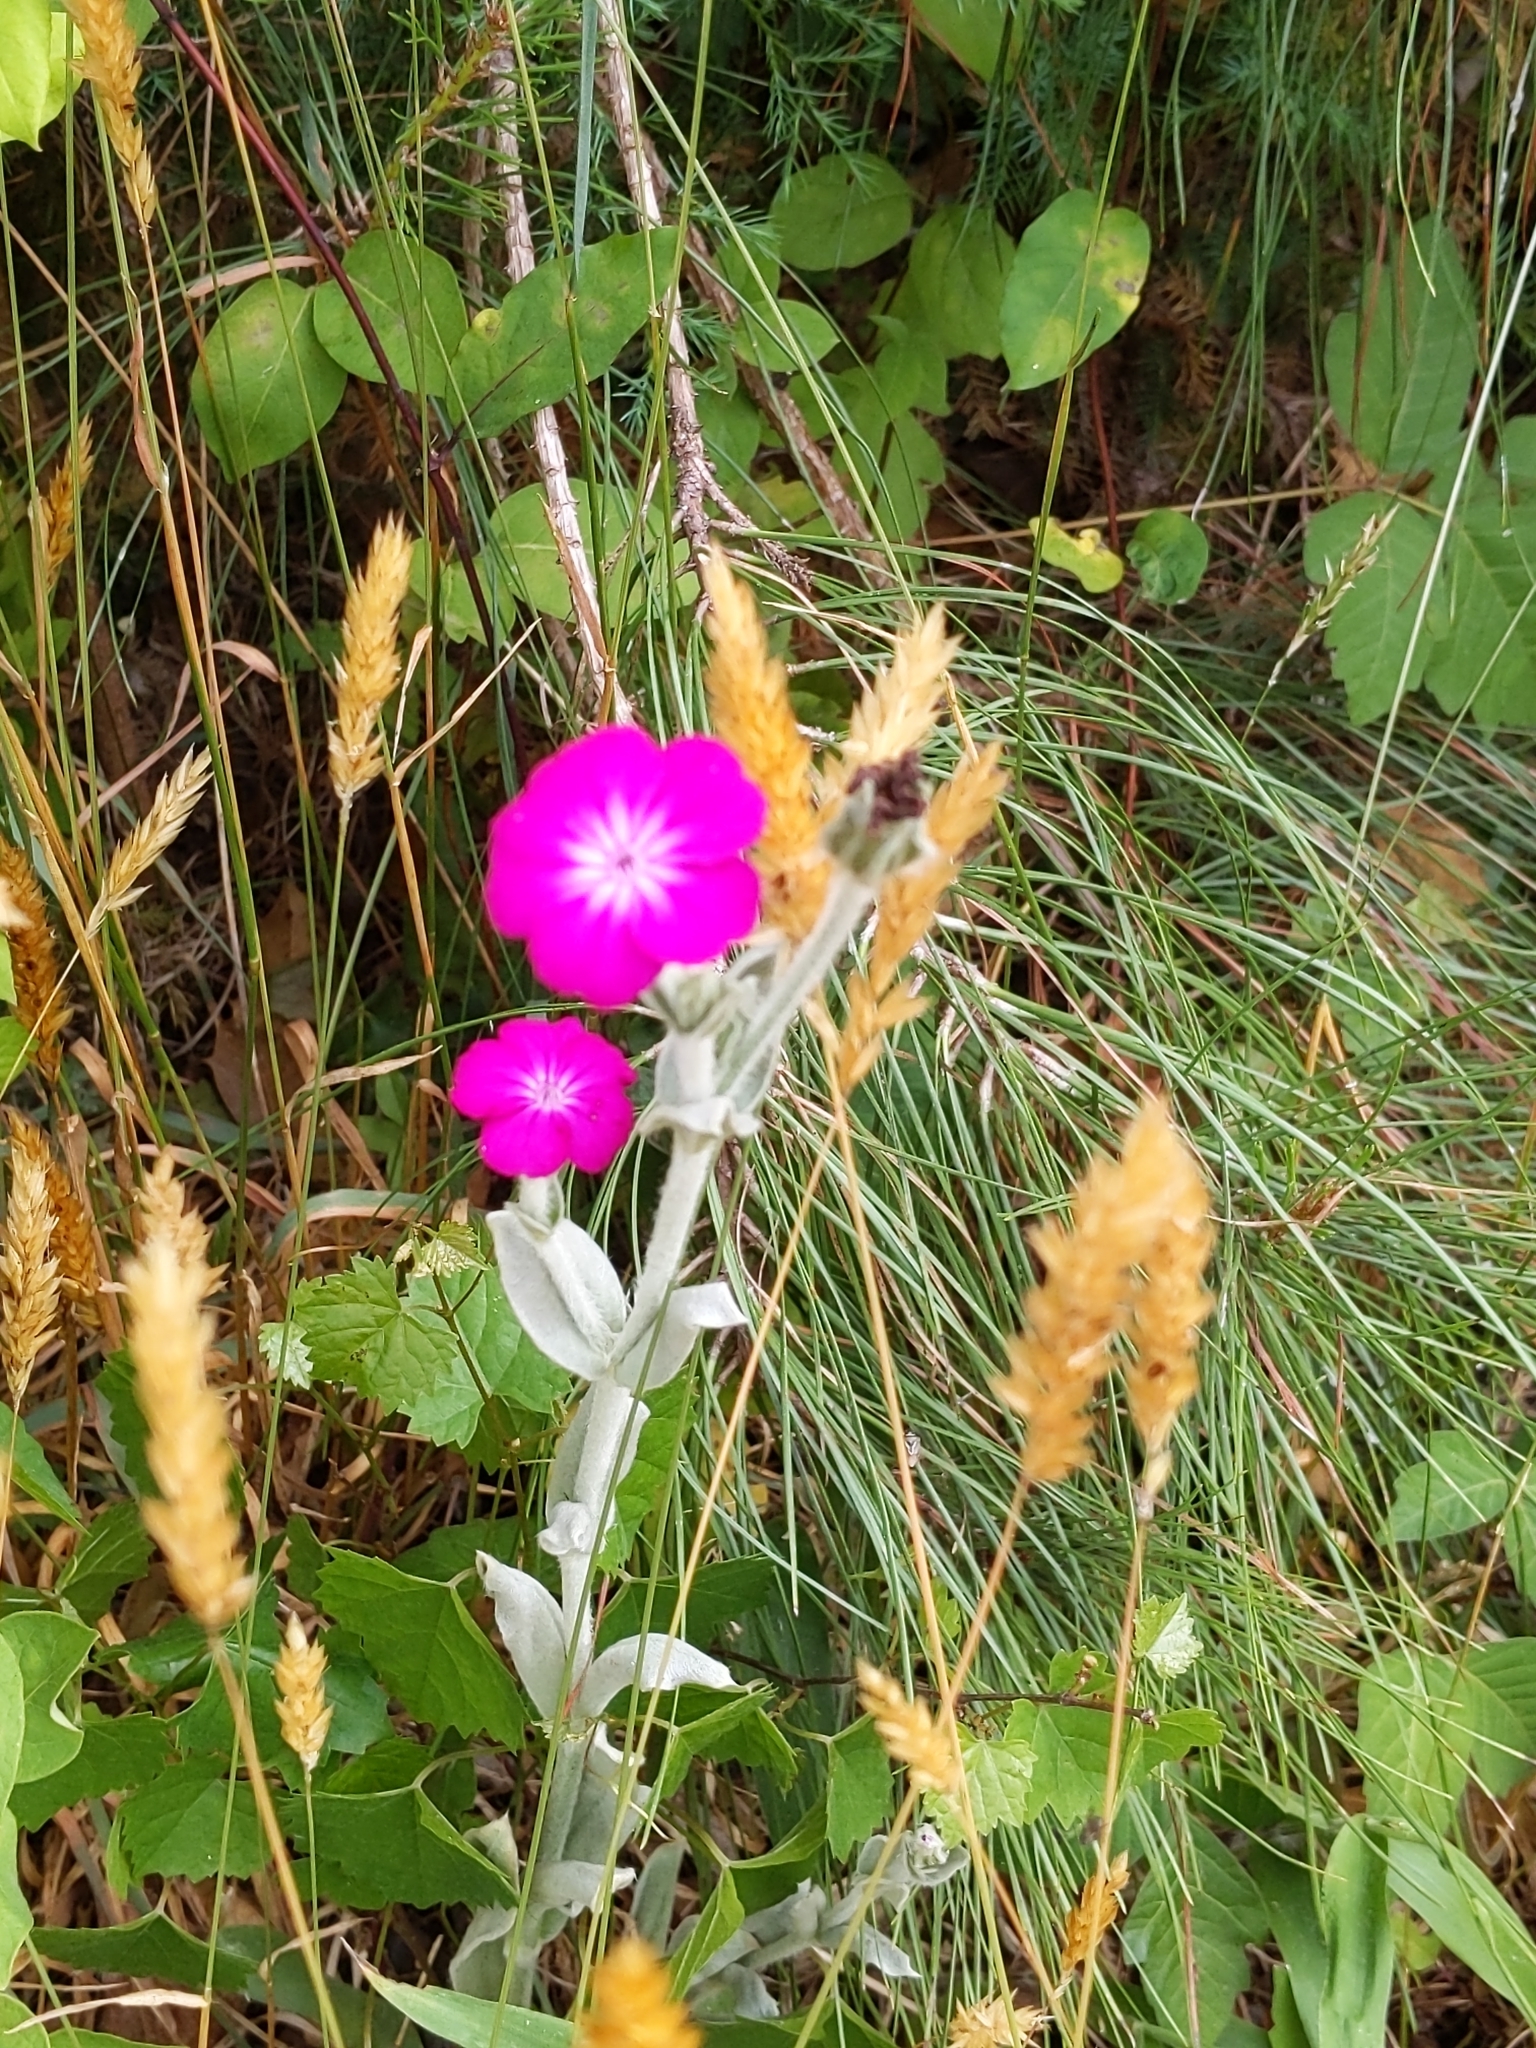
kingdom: Plantae
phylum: Tracheophyta
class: Magnoliopsida
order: Caryophyllales
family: Caryophyllaceae
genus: Silene
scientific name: Silene coronaria
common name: Rose campion
